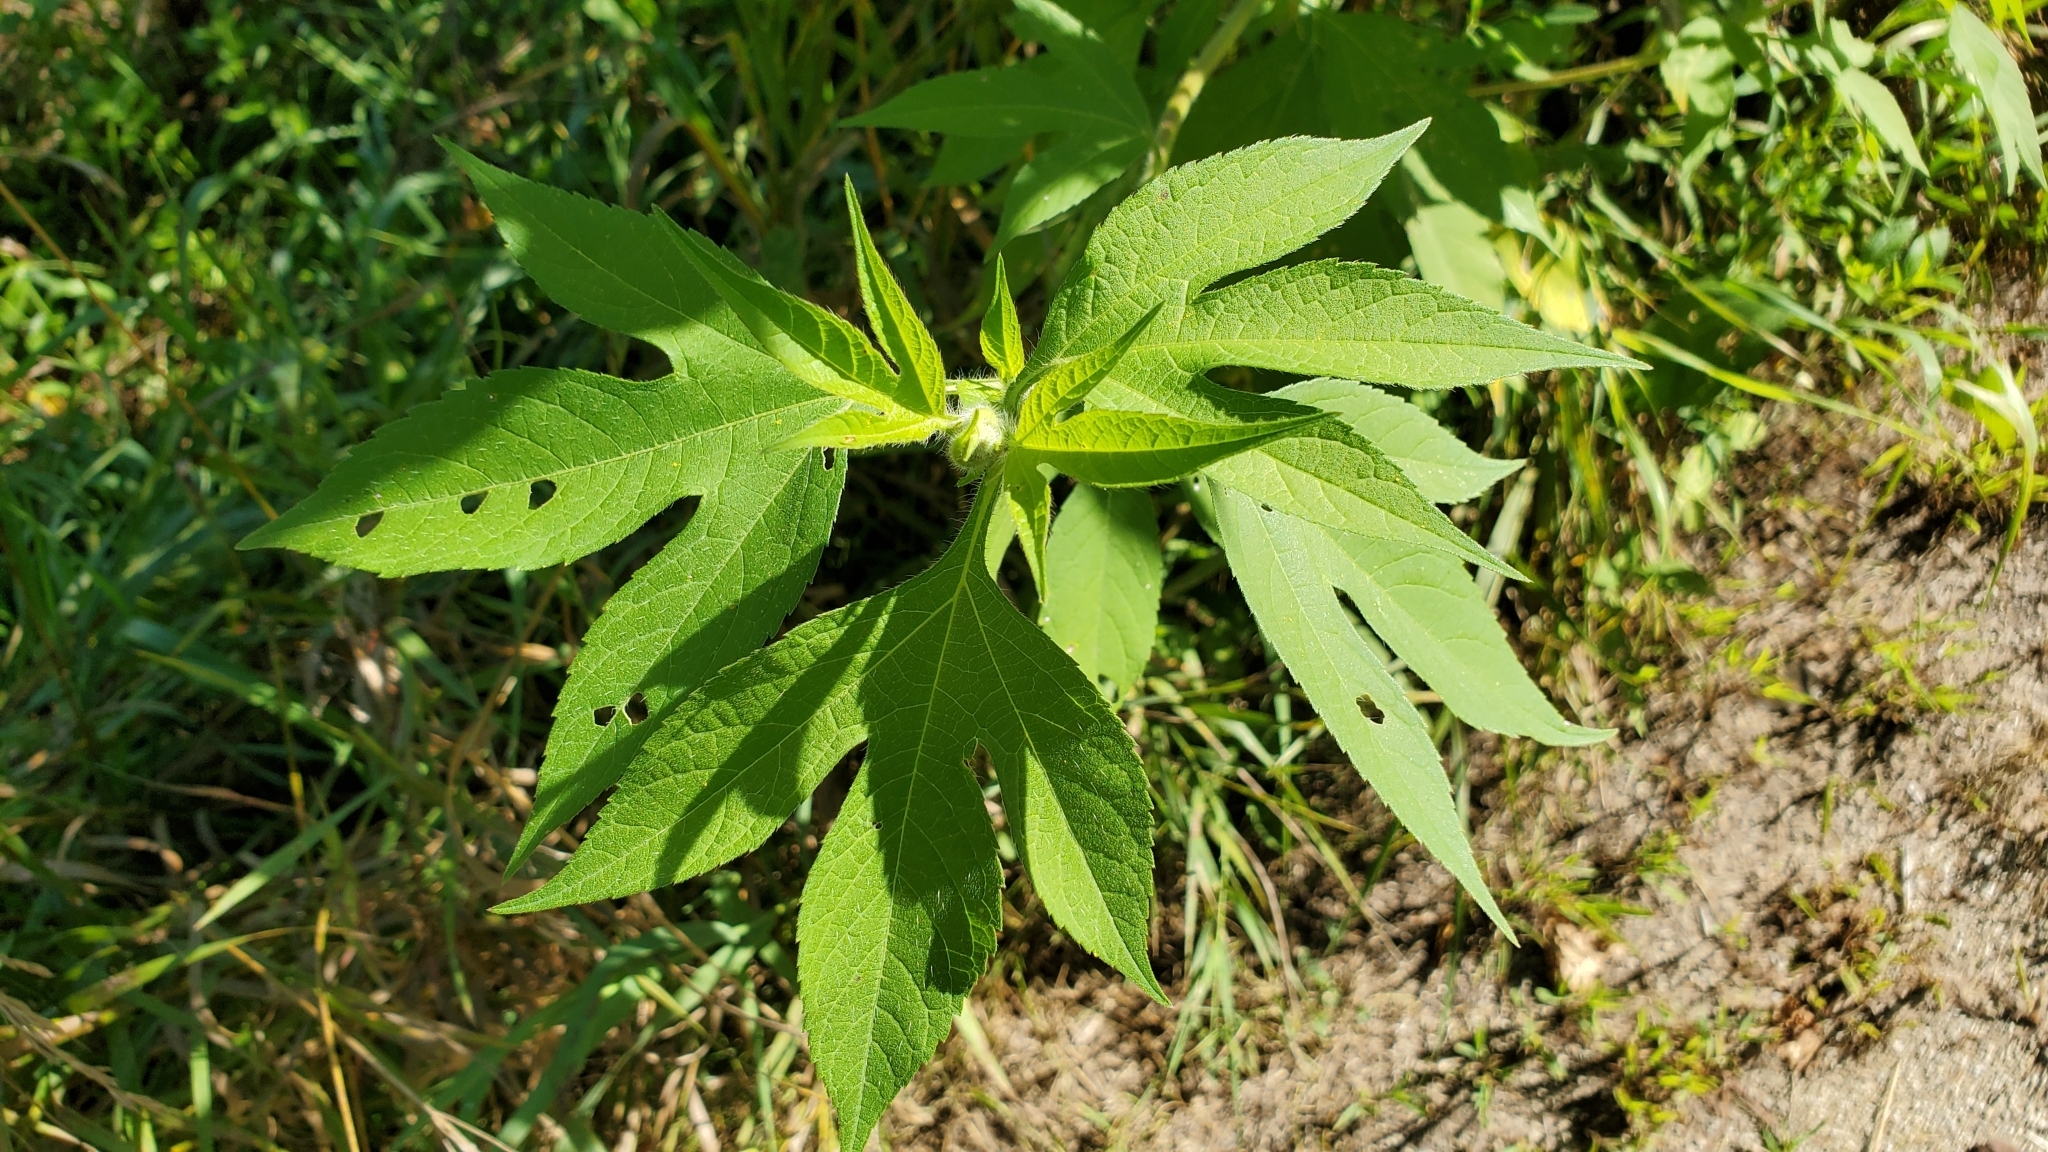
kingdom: Plantae
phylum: Tracheophyta
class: Magnoliopsida
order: Asterales
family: Asteraceae
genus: Ambrosia
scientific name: Ambrosia trifida
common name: Giant ragweed
